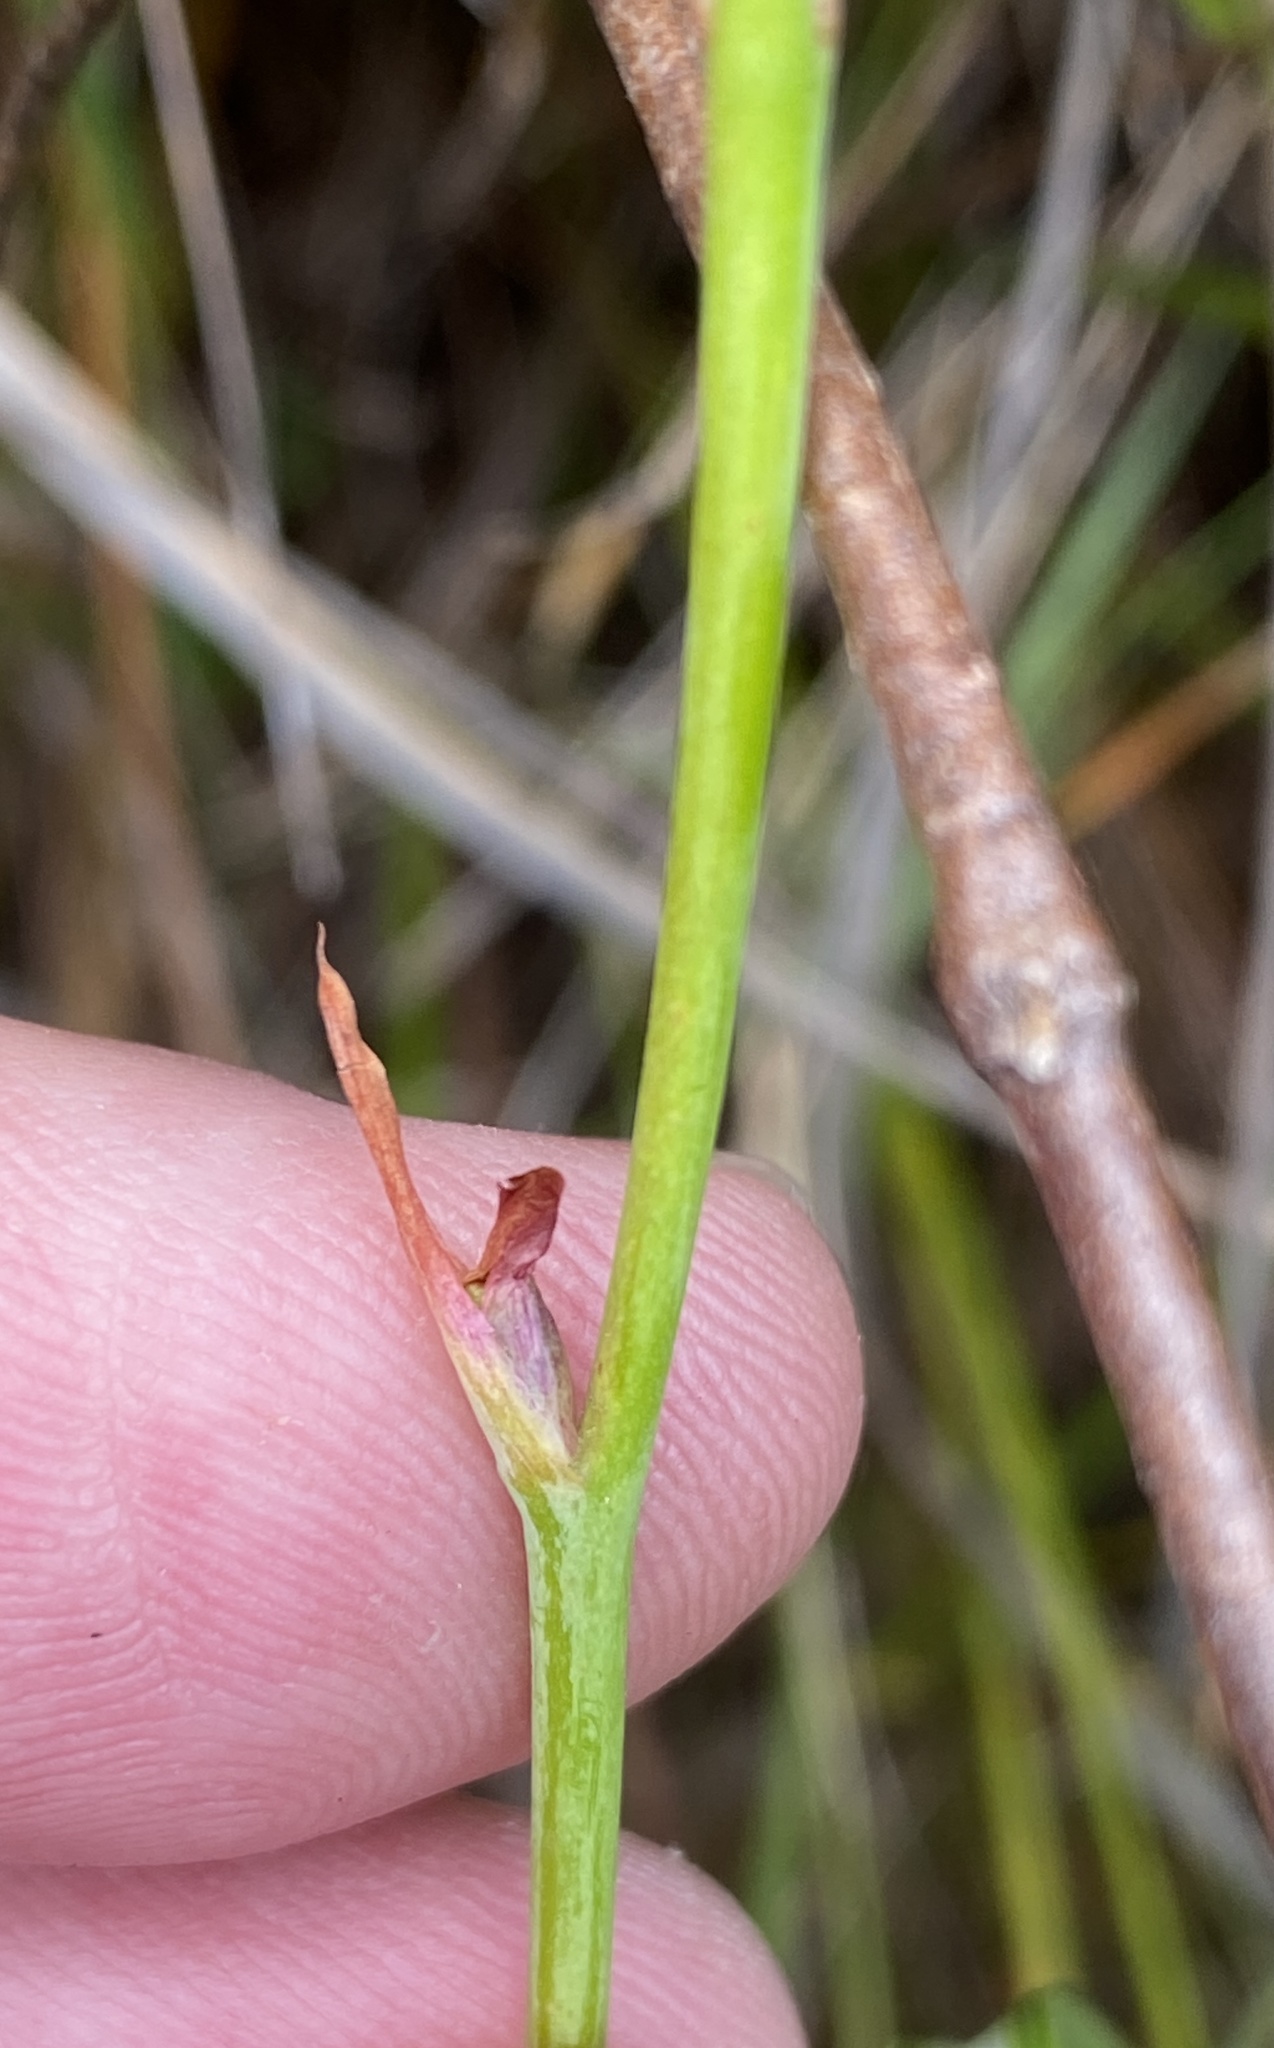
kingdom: Plantae
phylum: Tracheophyta
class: Liliopsida
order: Asparagales
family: Iridaceae
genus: Tritoniopsis
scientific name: Tritoniopsis lata
